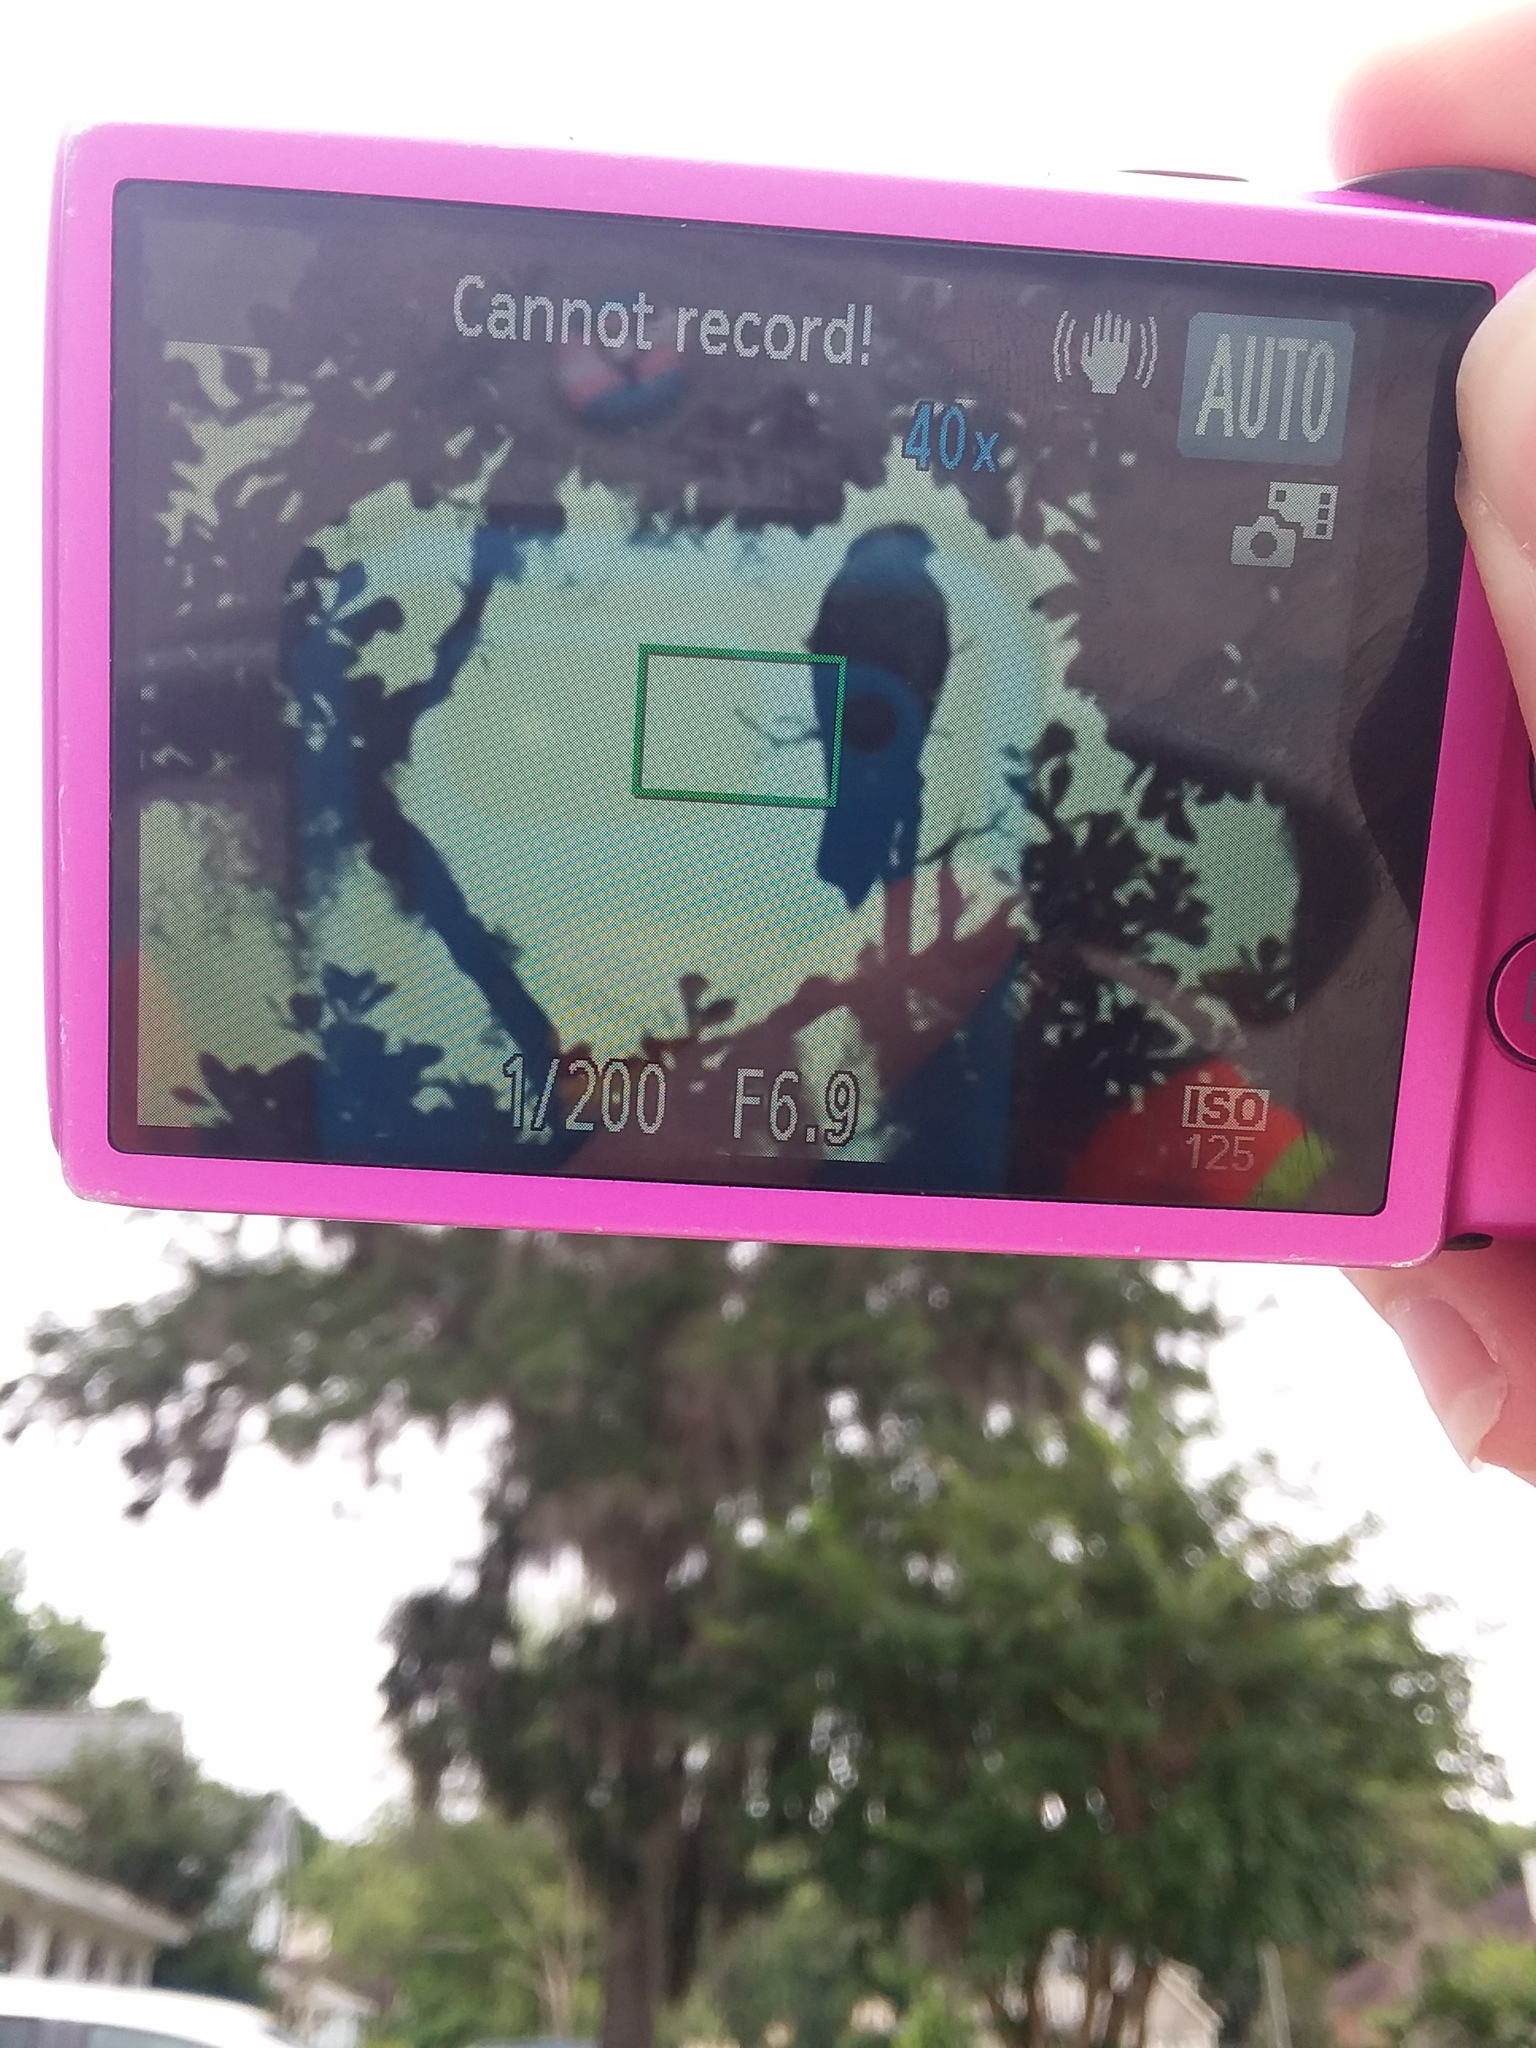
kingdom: Animalia
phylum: Chordata
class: Aves
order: Accipitriformes
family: Accipitridae
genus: Ictinia
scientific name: Ictinia mississippiensis
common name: Mississippi kite
